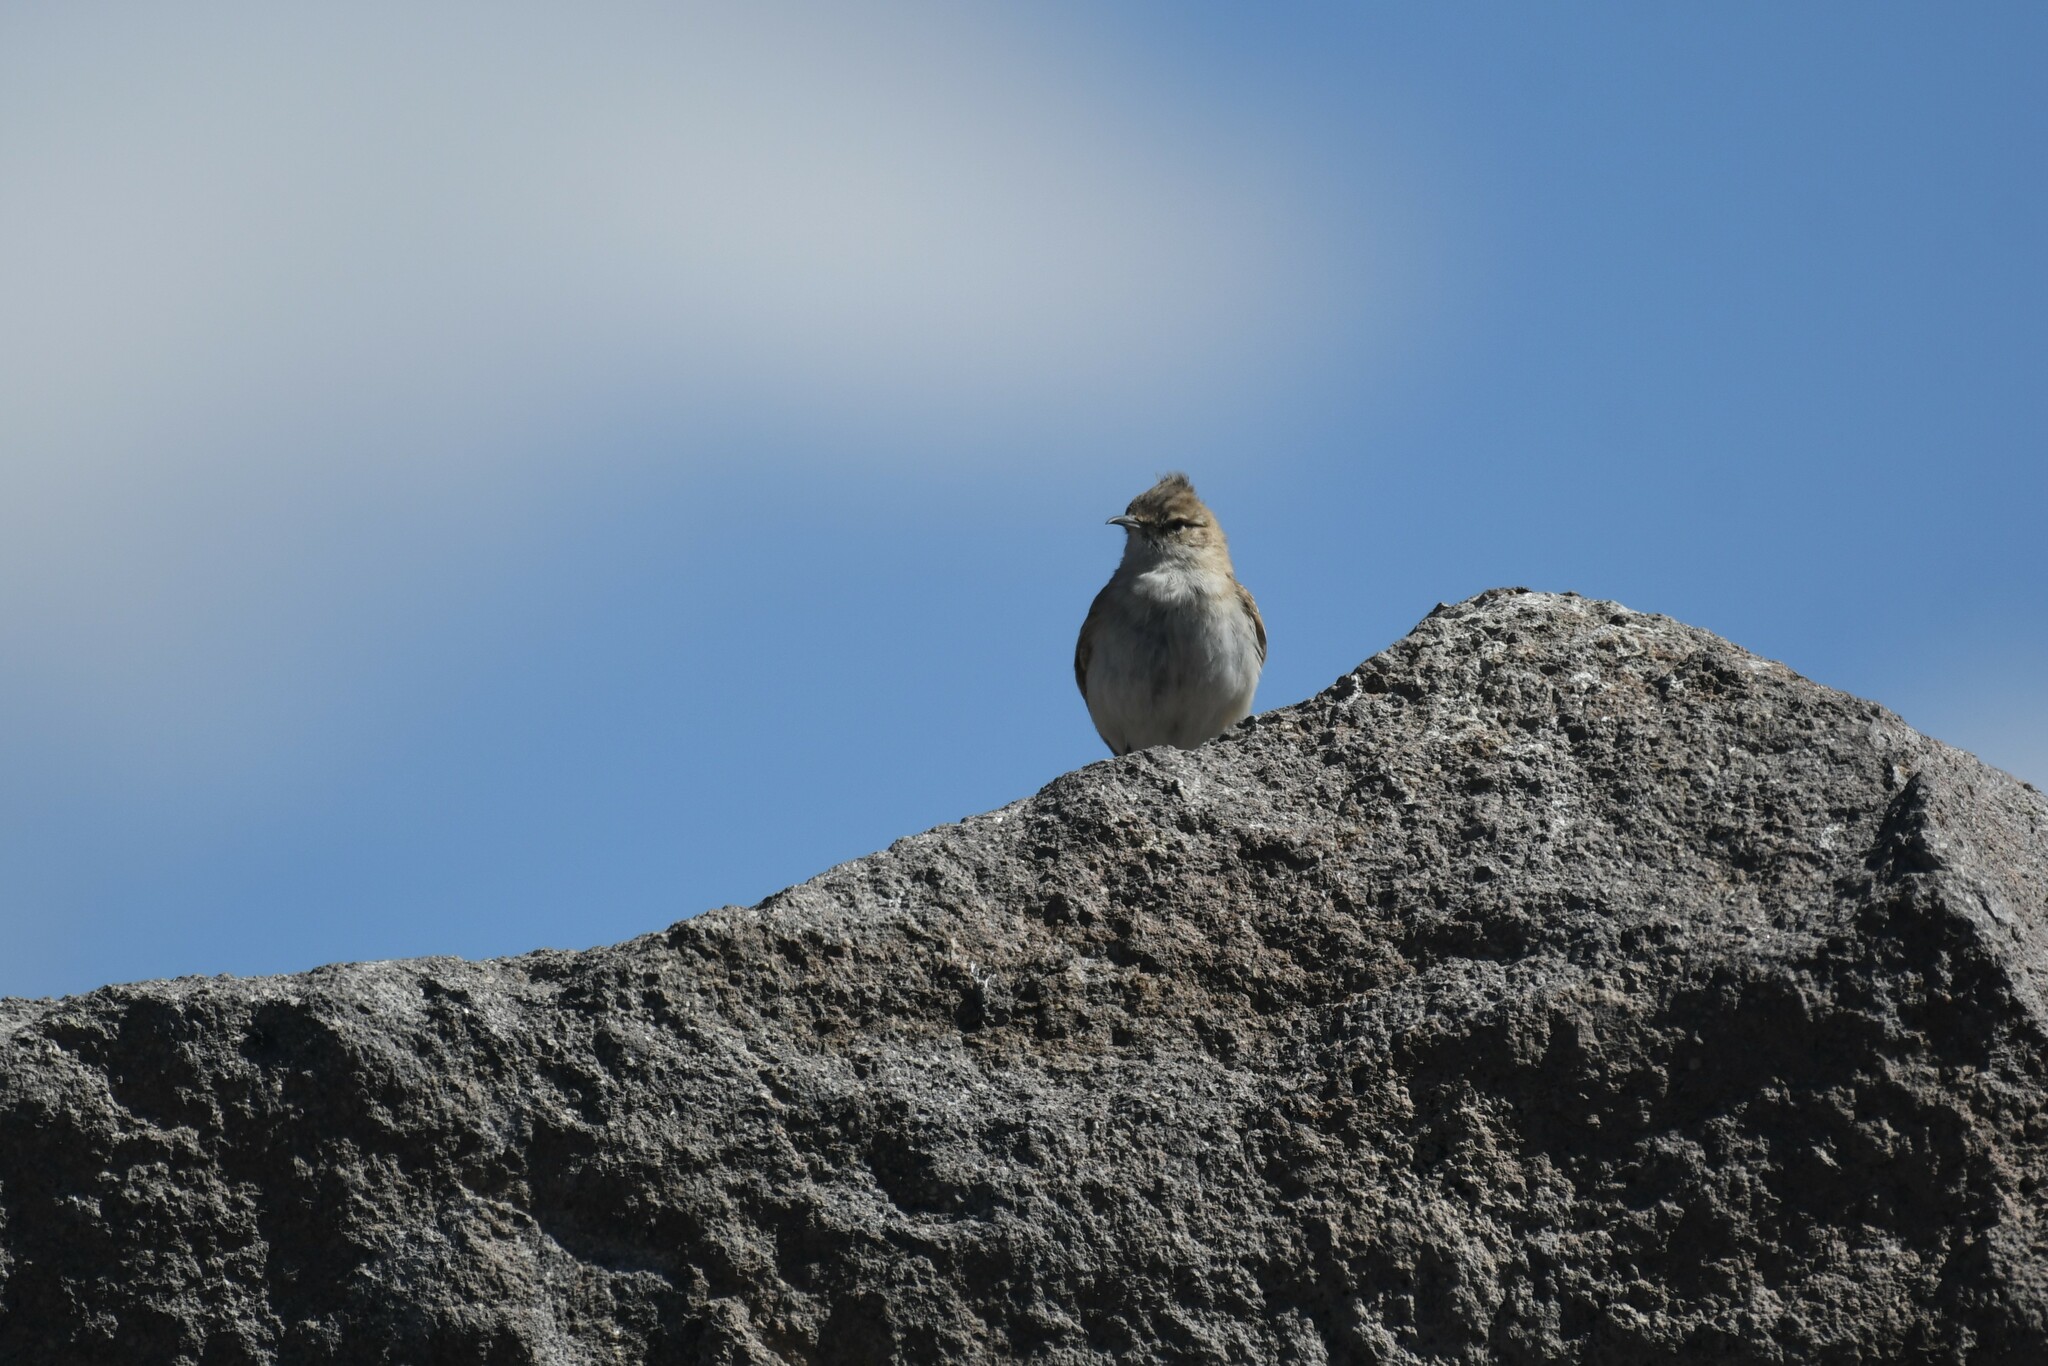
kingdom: Animalia
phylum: Chordata
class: Aves
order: Passeriformes
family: Furnariidae
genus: Geositta
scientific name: Geositta punensis
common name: Puna miner
